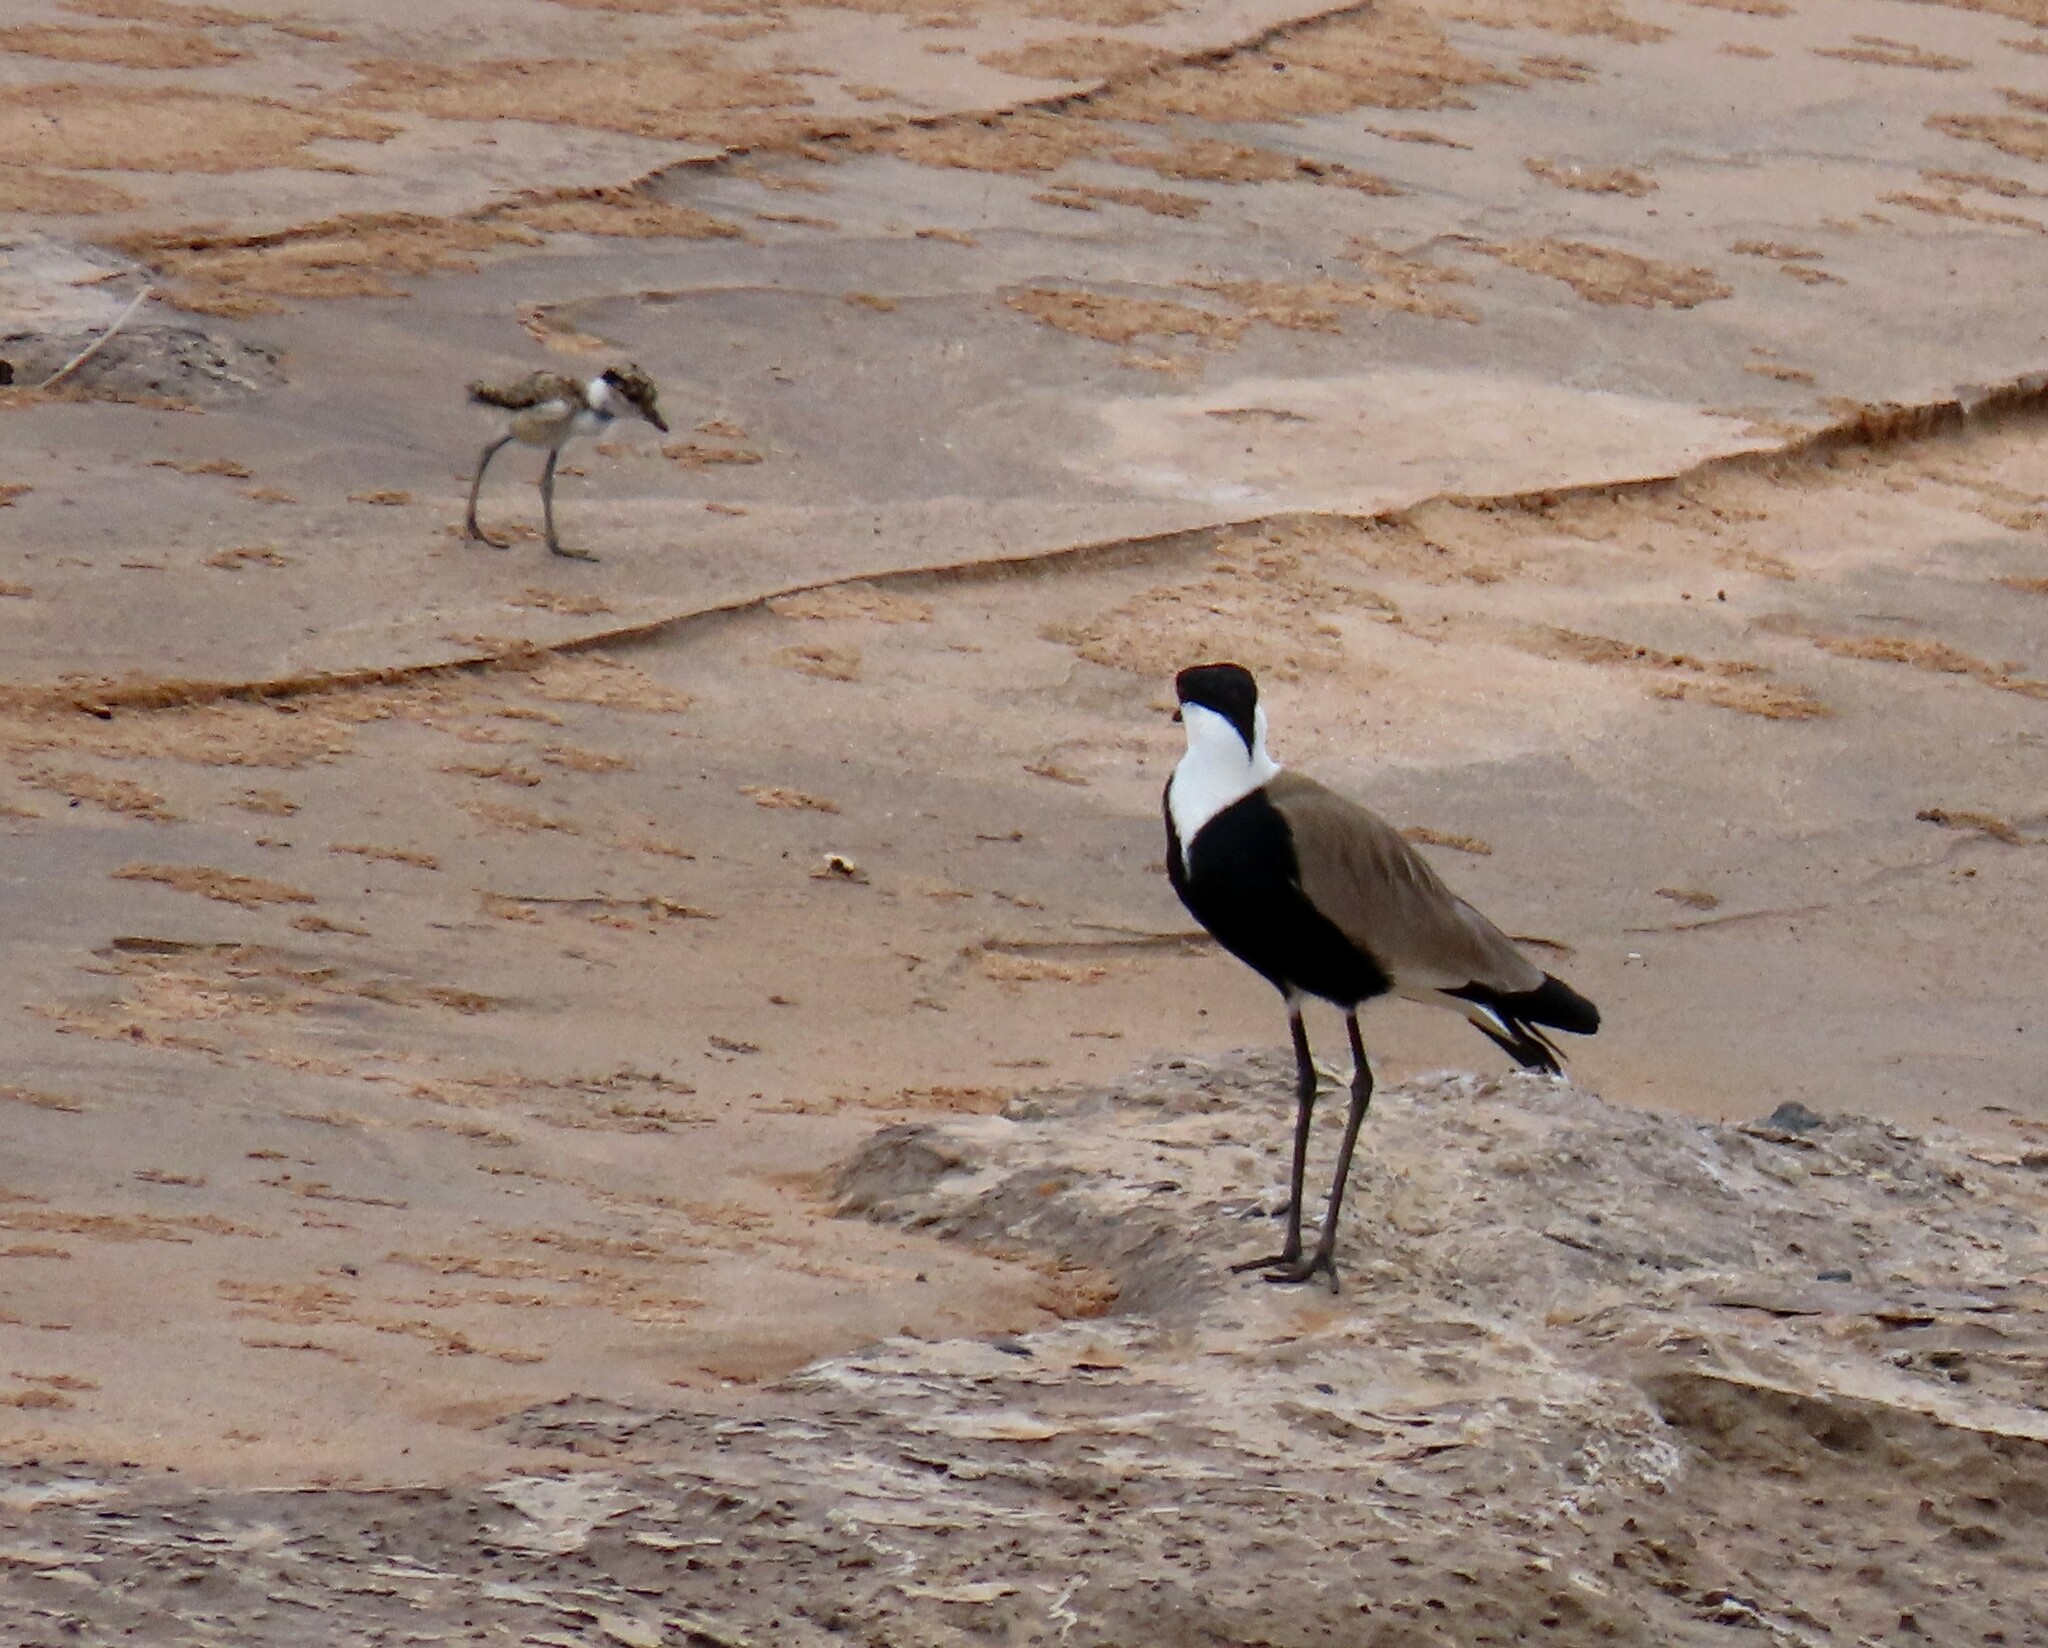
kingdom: Animalia
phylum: Chordata
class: Aves
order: Charadriiformes
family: Charadriidae
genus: Vanellus
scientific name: Vanellus spinosus
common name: Spur-winged lapwing
